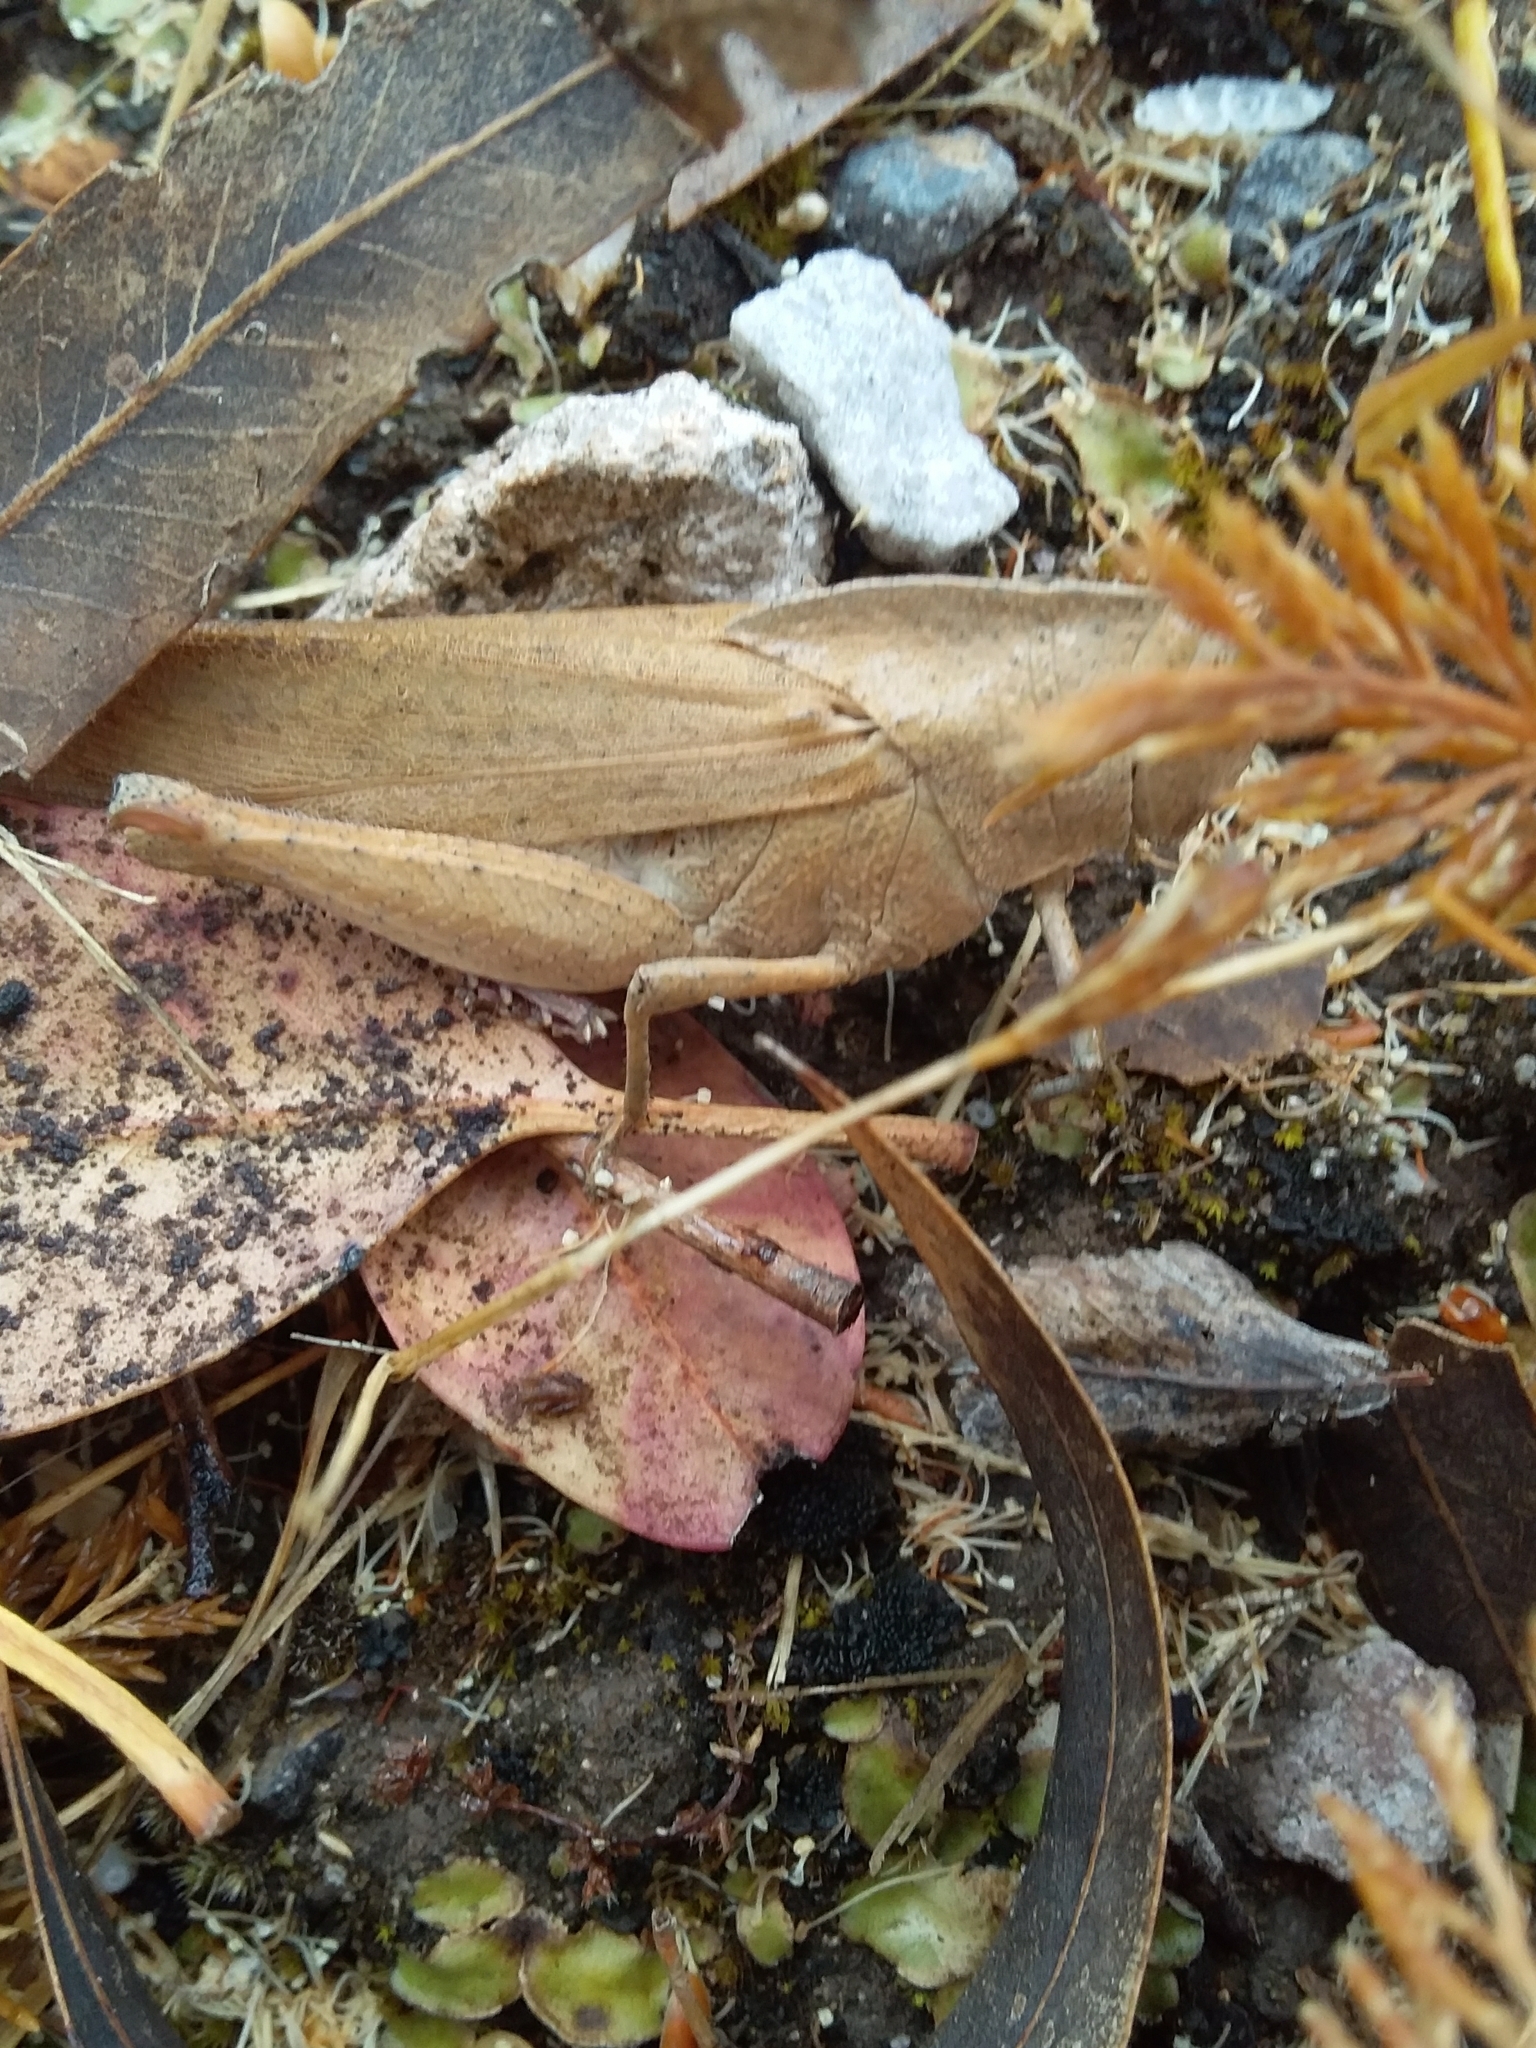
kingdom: Animalia
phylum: Arthropoda
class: Insecta
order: Orthoptera
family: Acrididae
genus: Goniaea
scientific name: Goniaea australasiae
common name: Gumleaf grasshopper
